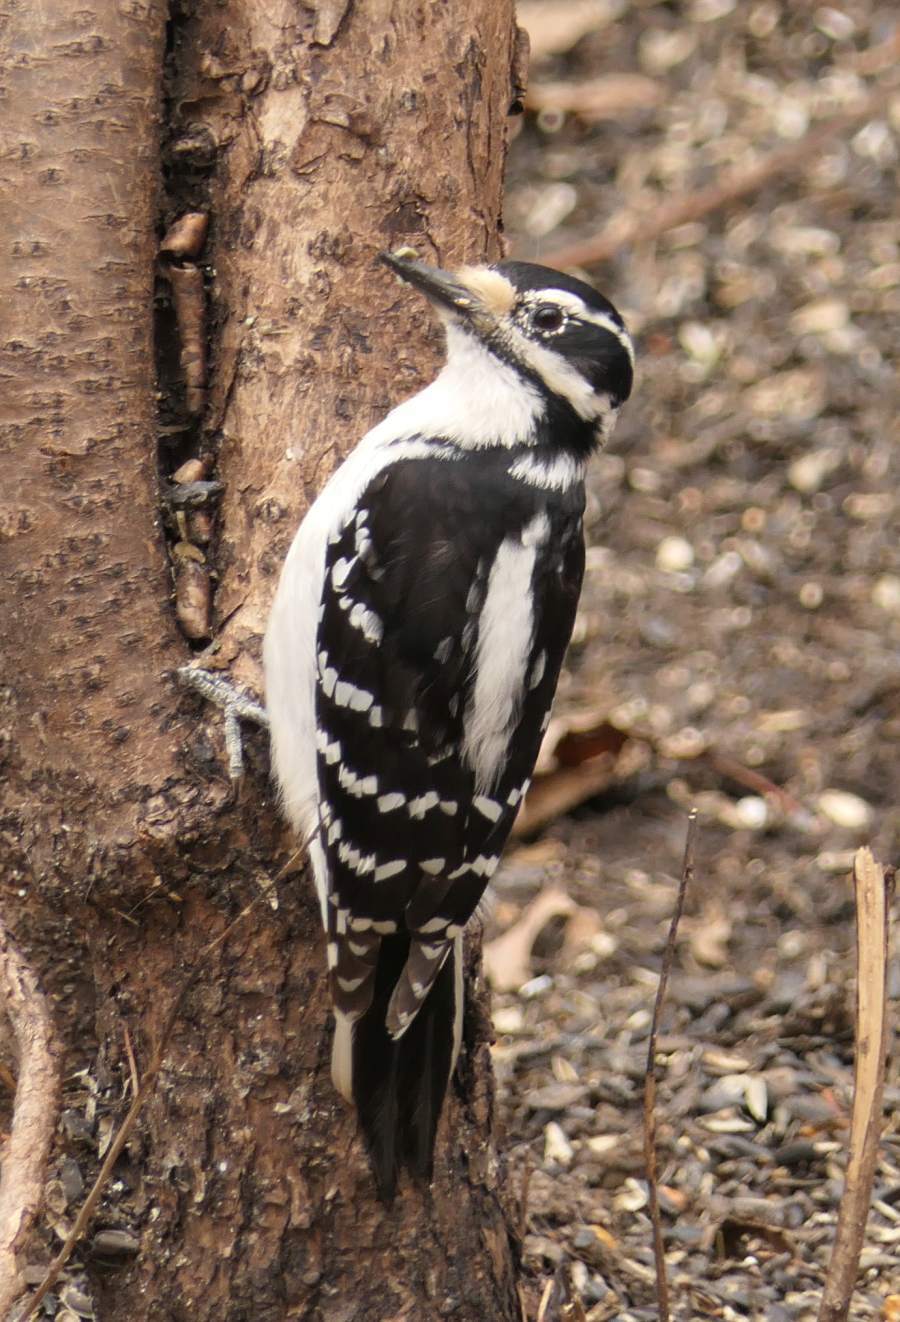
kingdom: Animalia
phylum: Chordata
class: Aves
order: Piciformes
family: Picidae
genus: Leuconotopicus
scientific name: Leuconotopicus villosus
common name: Hairy woodpecker
